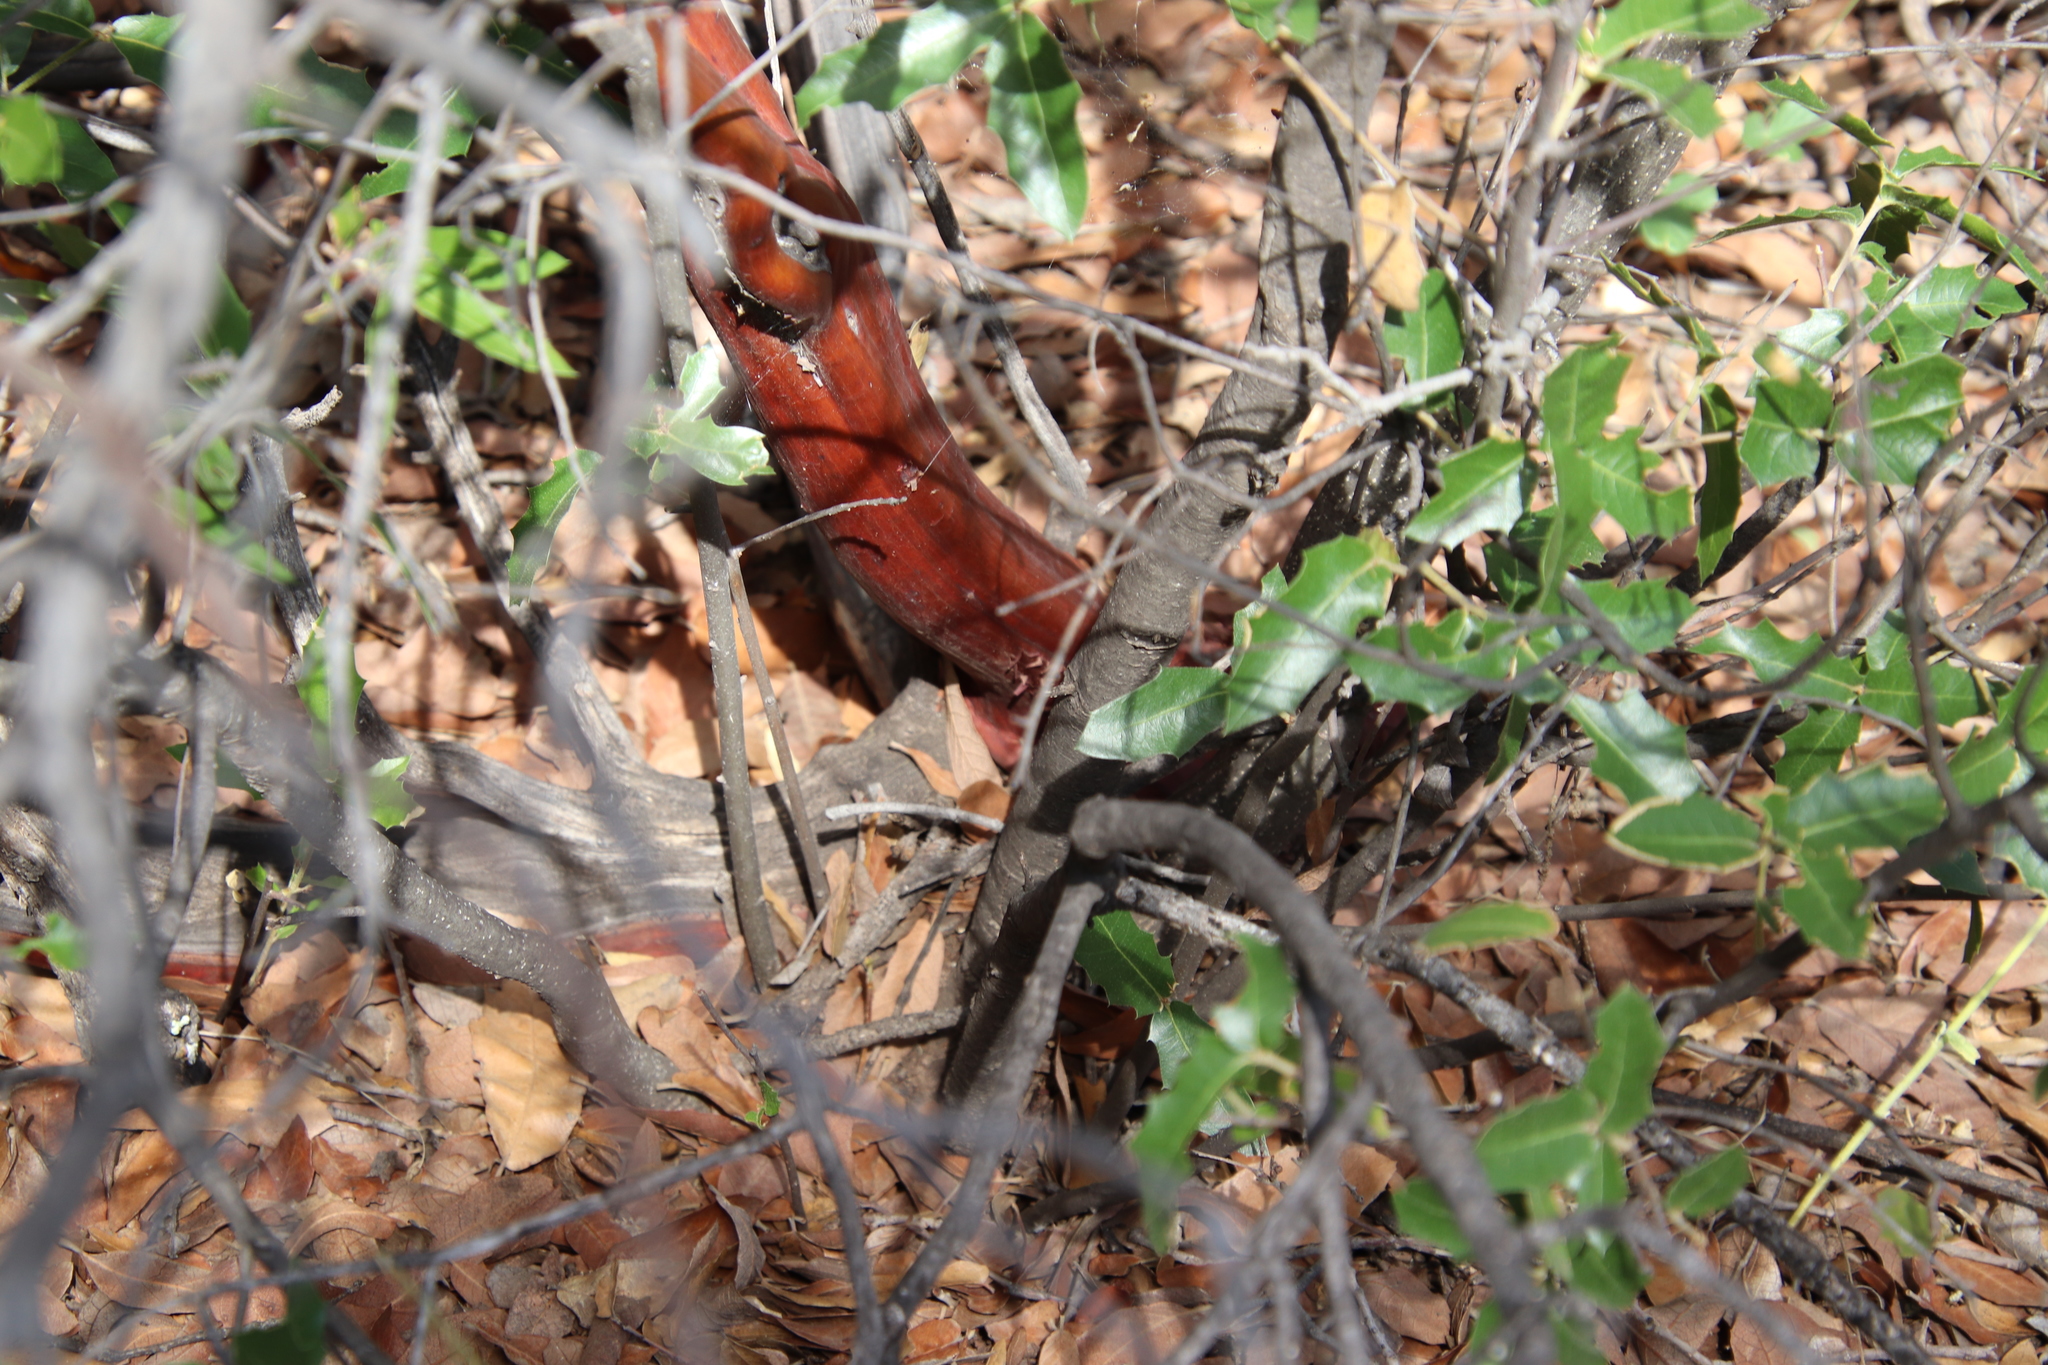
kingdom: Plantae
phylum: Tracheophyta
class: Magnoliopsida
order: Ericales
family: Ericaceae
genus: Arctostaphylos
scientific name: Arctostaphylos pungens
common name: Mexican manzanita
